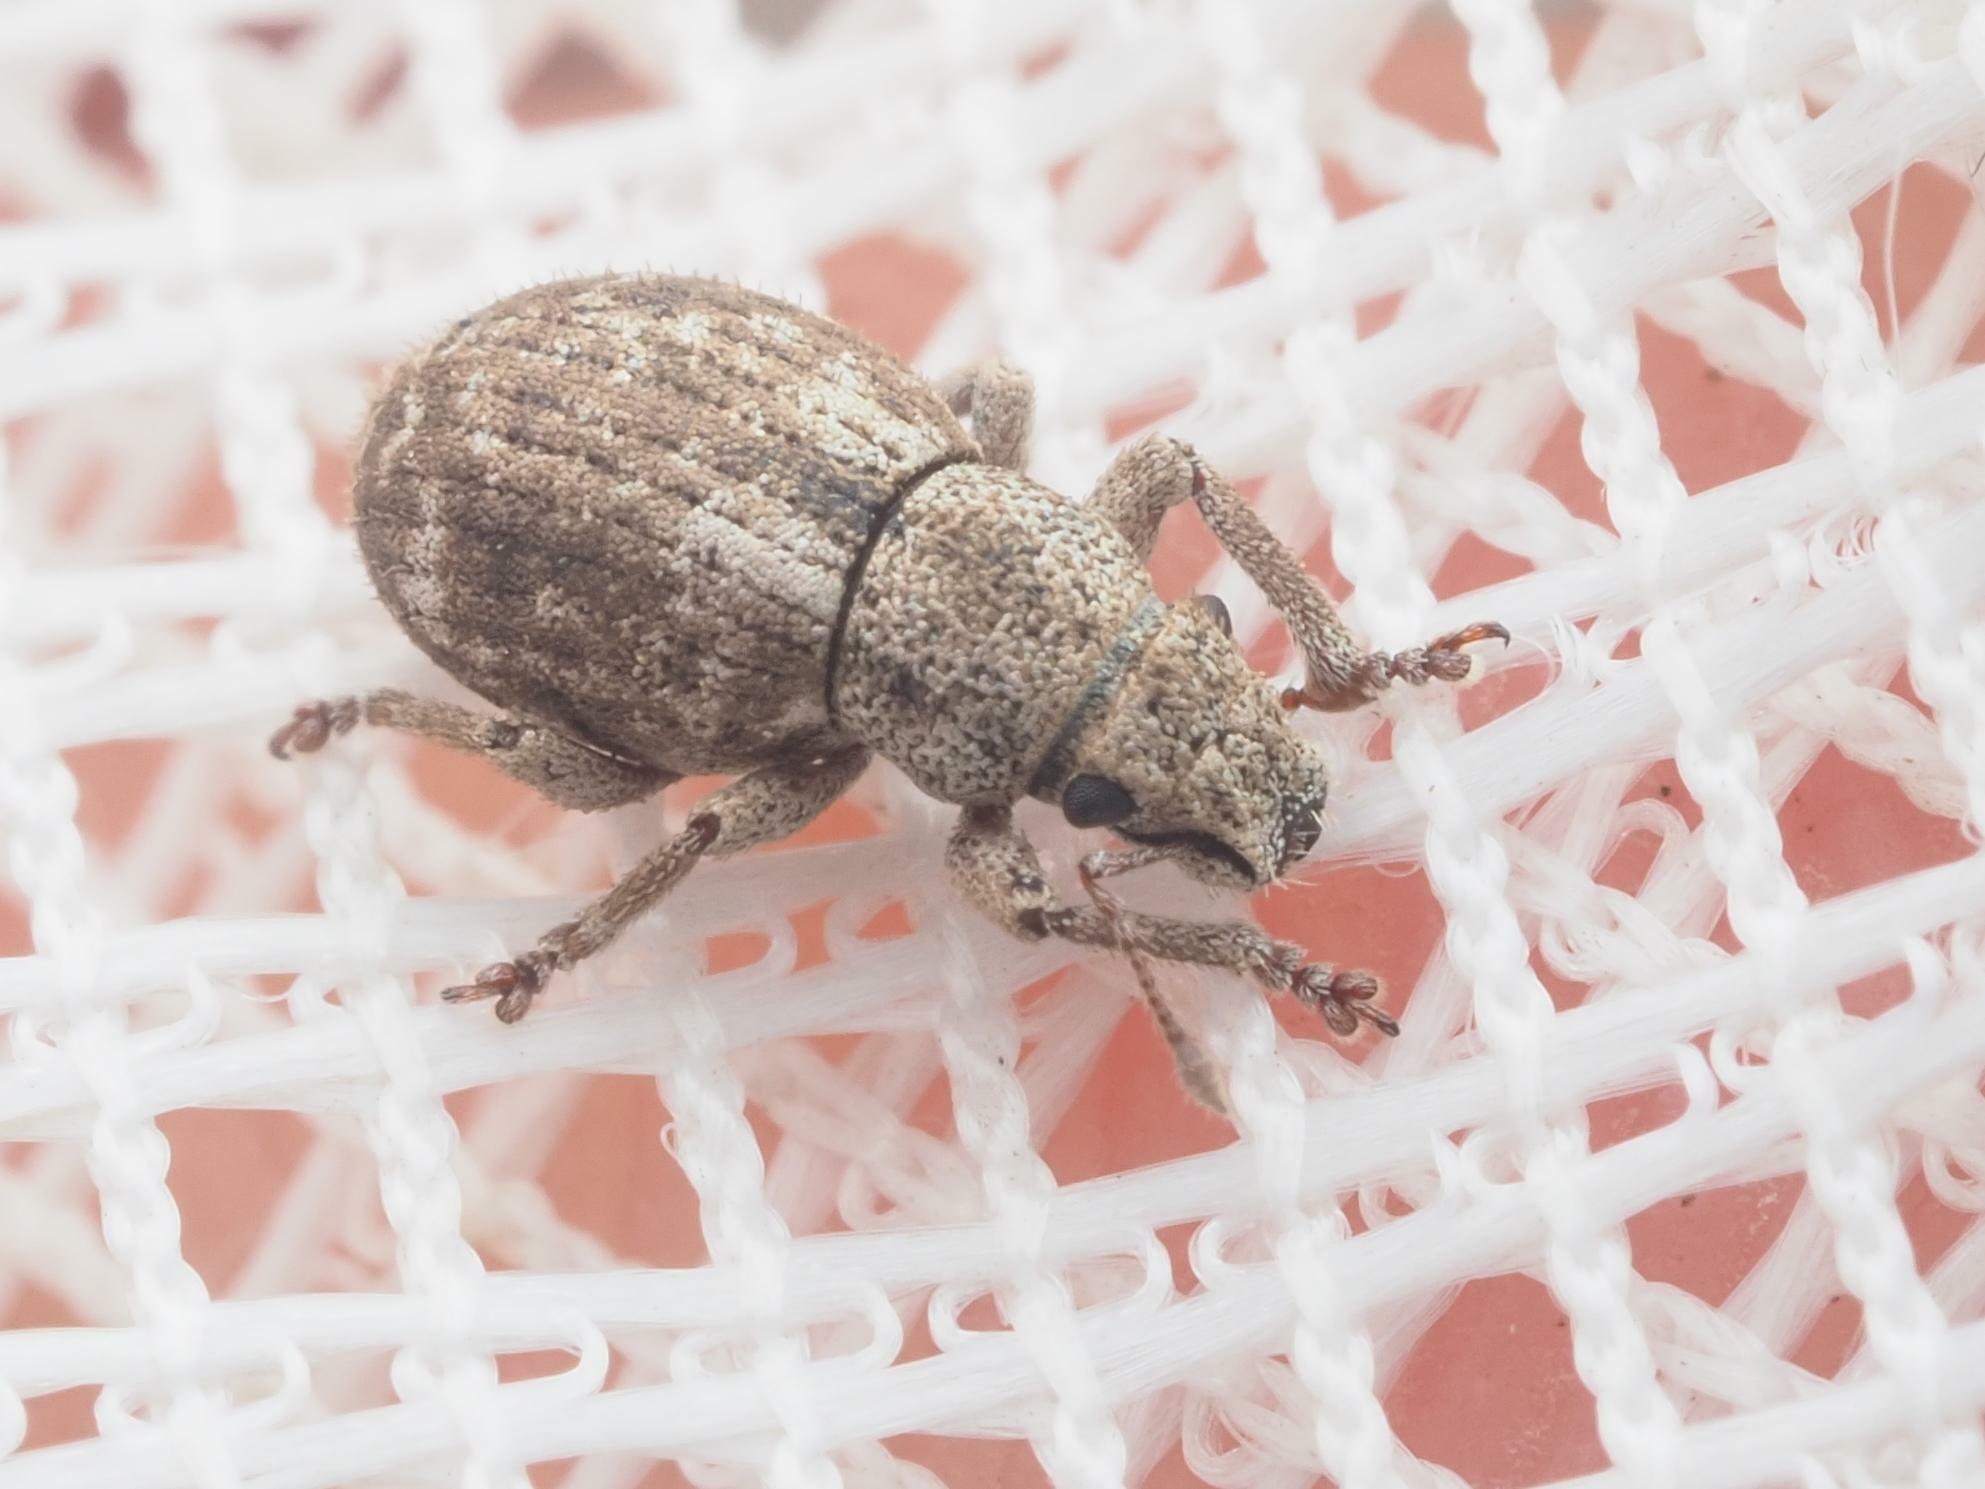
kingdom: Animalia
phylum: Arthropoda
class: Insecta
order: Coleoptera
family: Curculionidae
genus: Strophosoma
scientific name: Strophosoma capitatum
